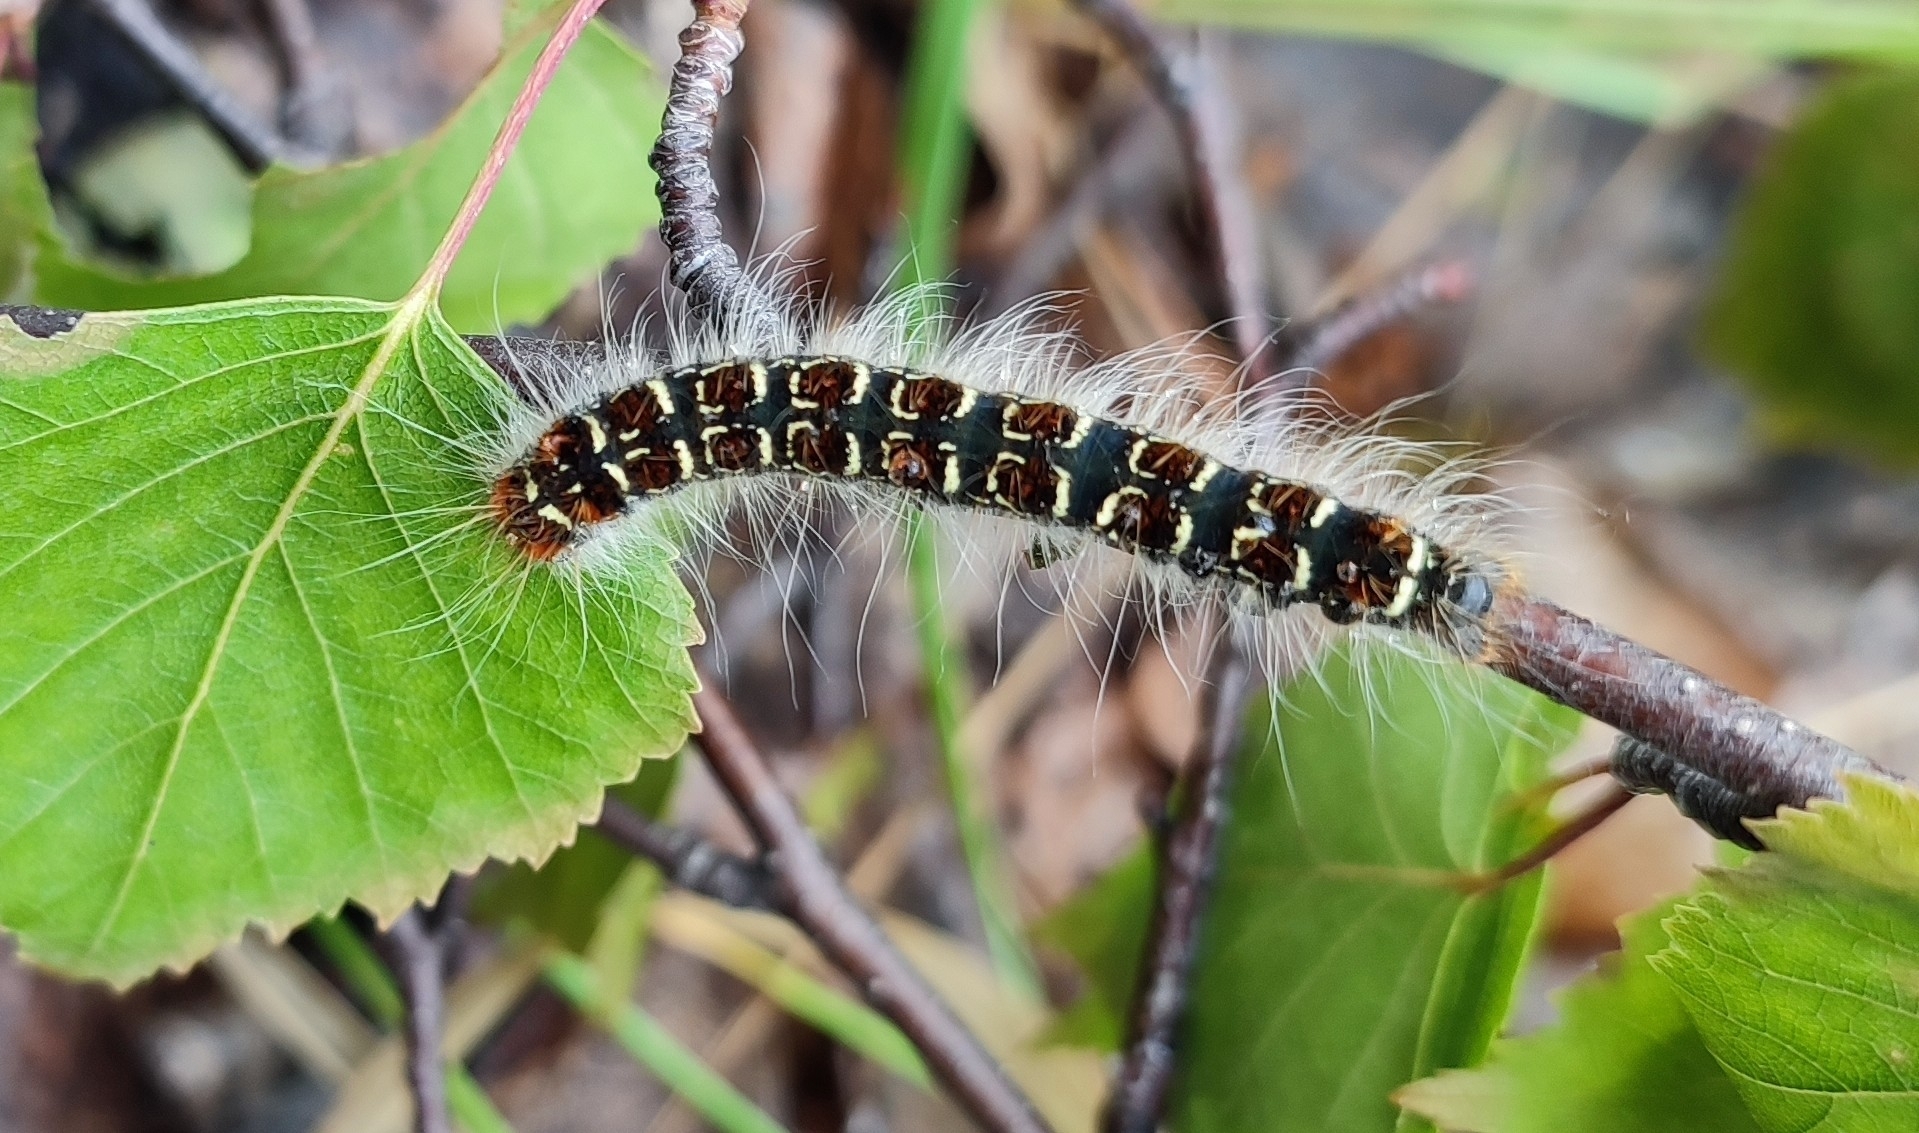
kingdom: Animalia
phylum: Arthropoda
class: Insecta
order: Lepidoptera
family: Lasiocampidae
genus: Eriogaster
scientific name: Eriogaster lanestris
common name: Small eggar
